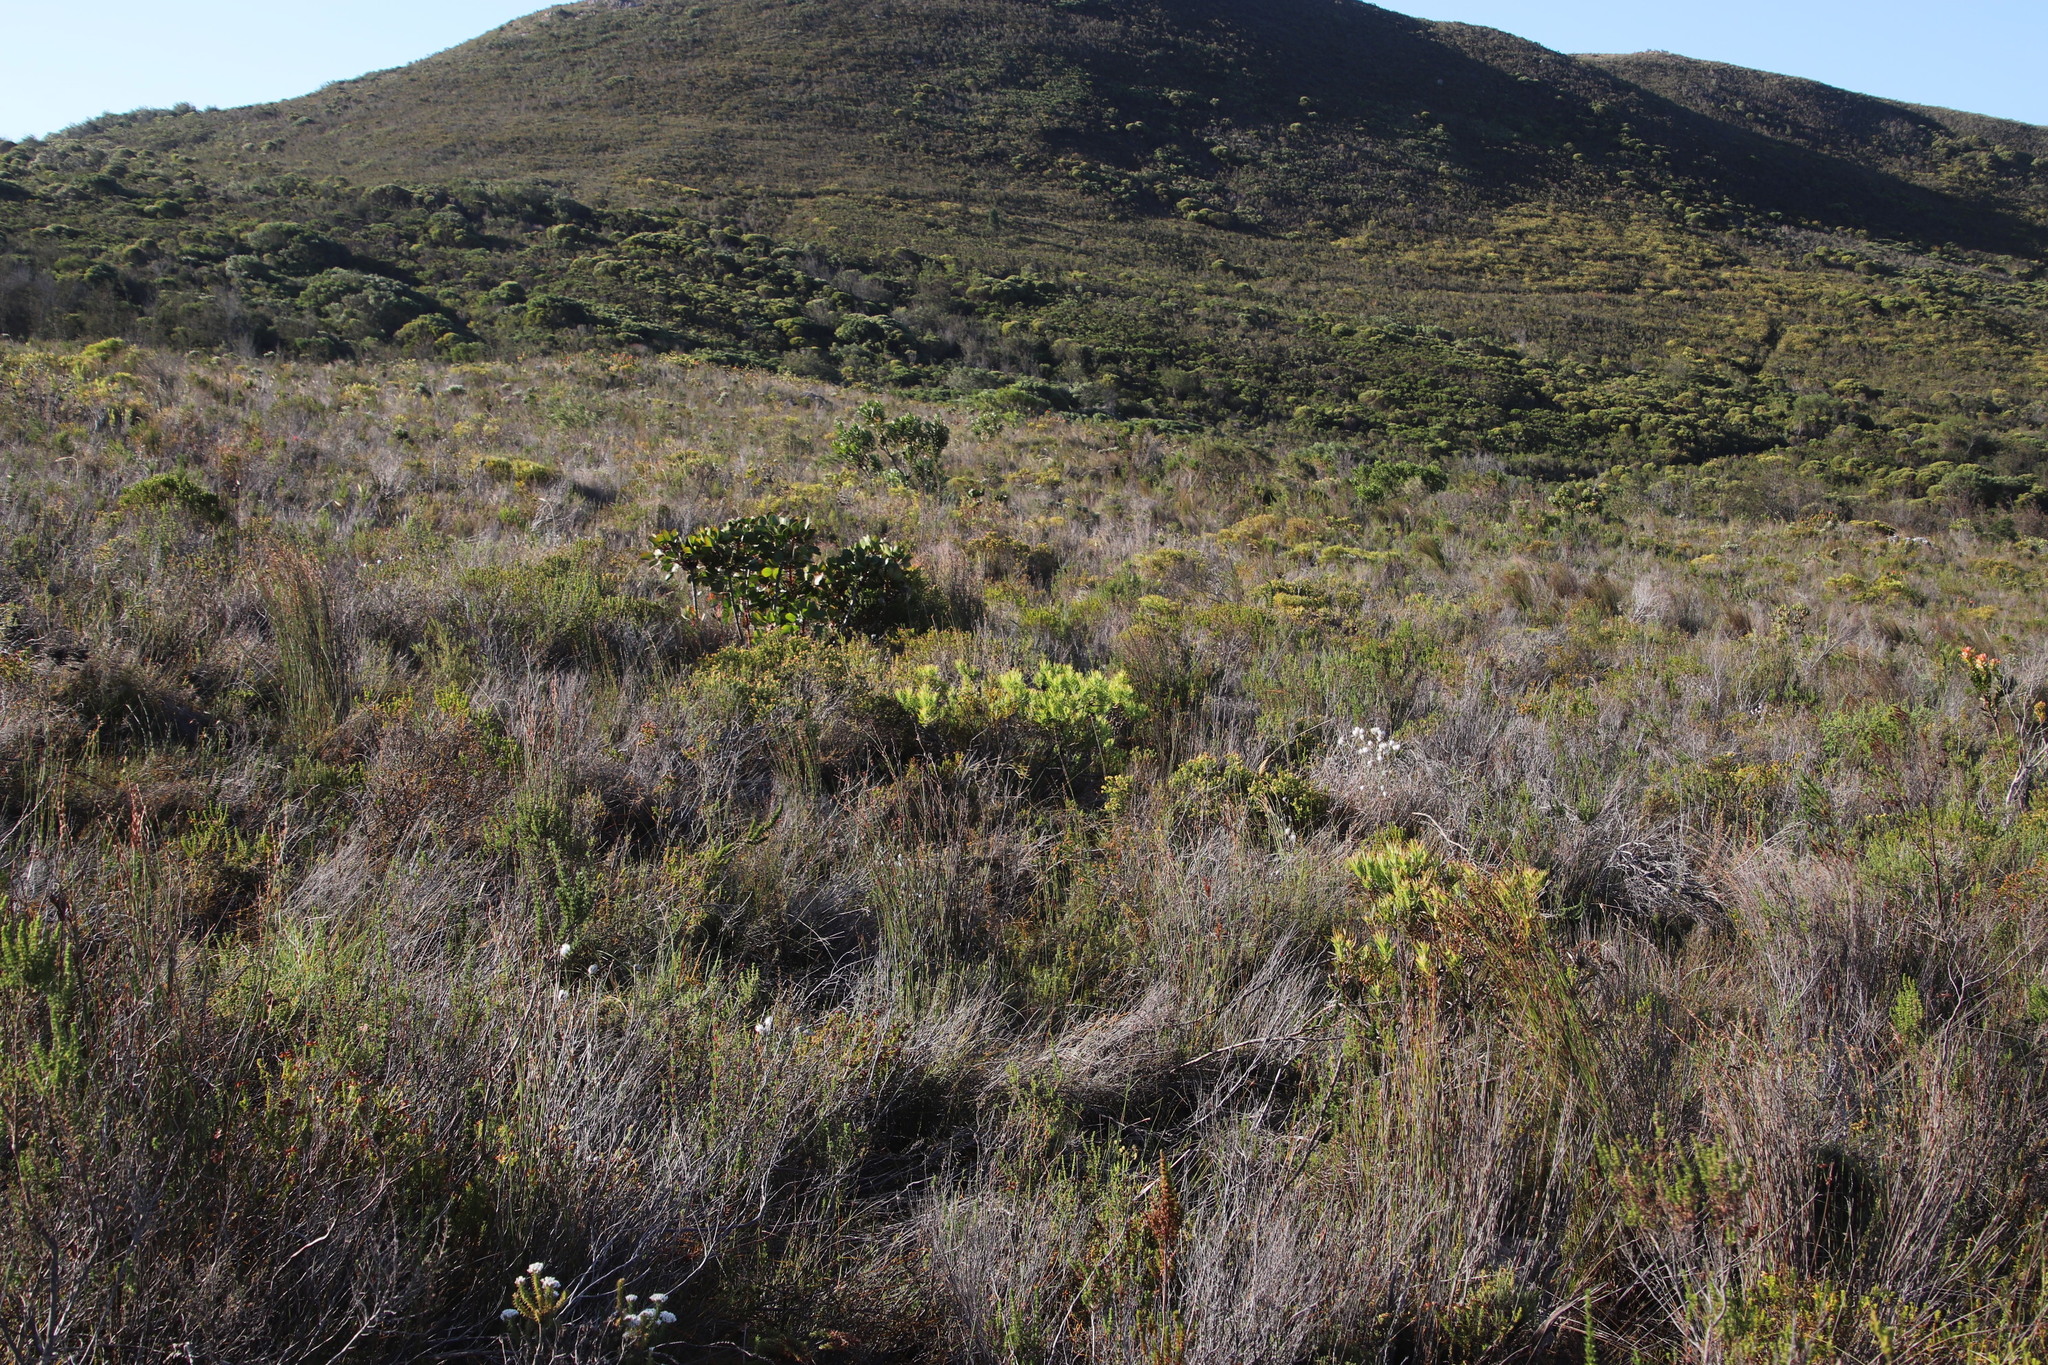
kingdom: Plantae
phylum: Tracheophyta
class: Magnoliopsida
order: Proteales
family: Proteaceae
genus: Leucadendron
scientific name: Leucadendron salignum
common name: Common sunshine conebush
